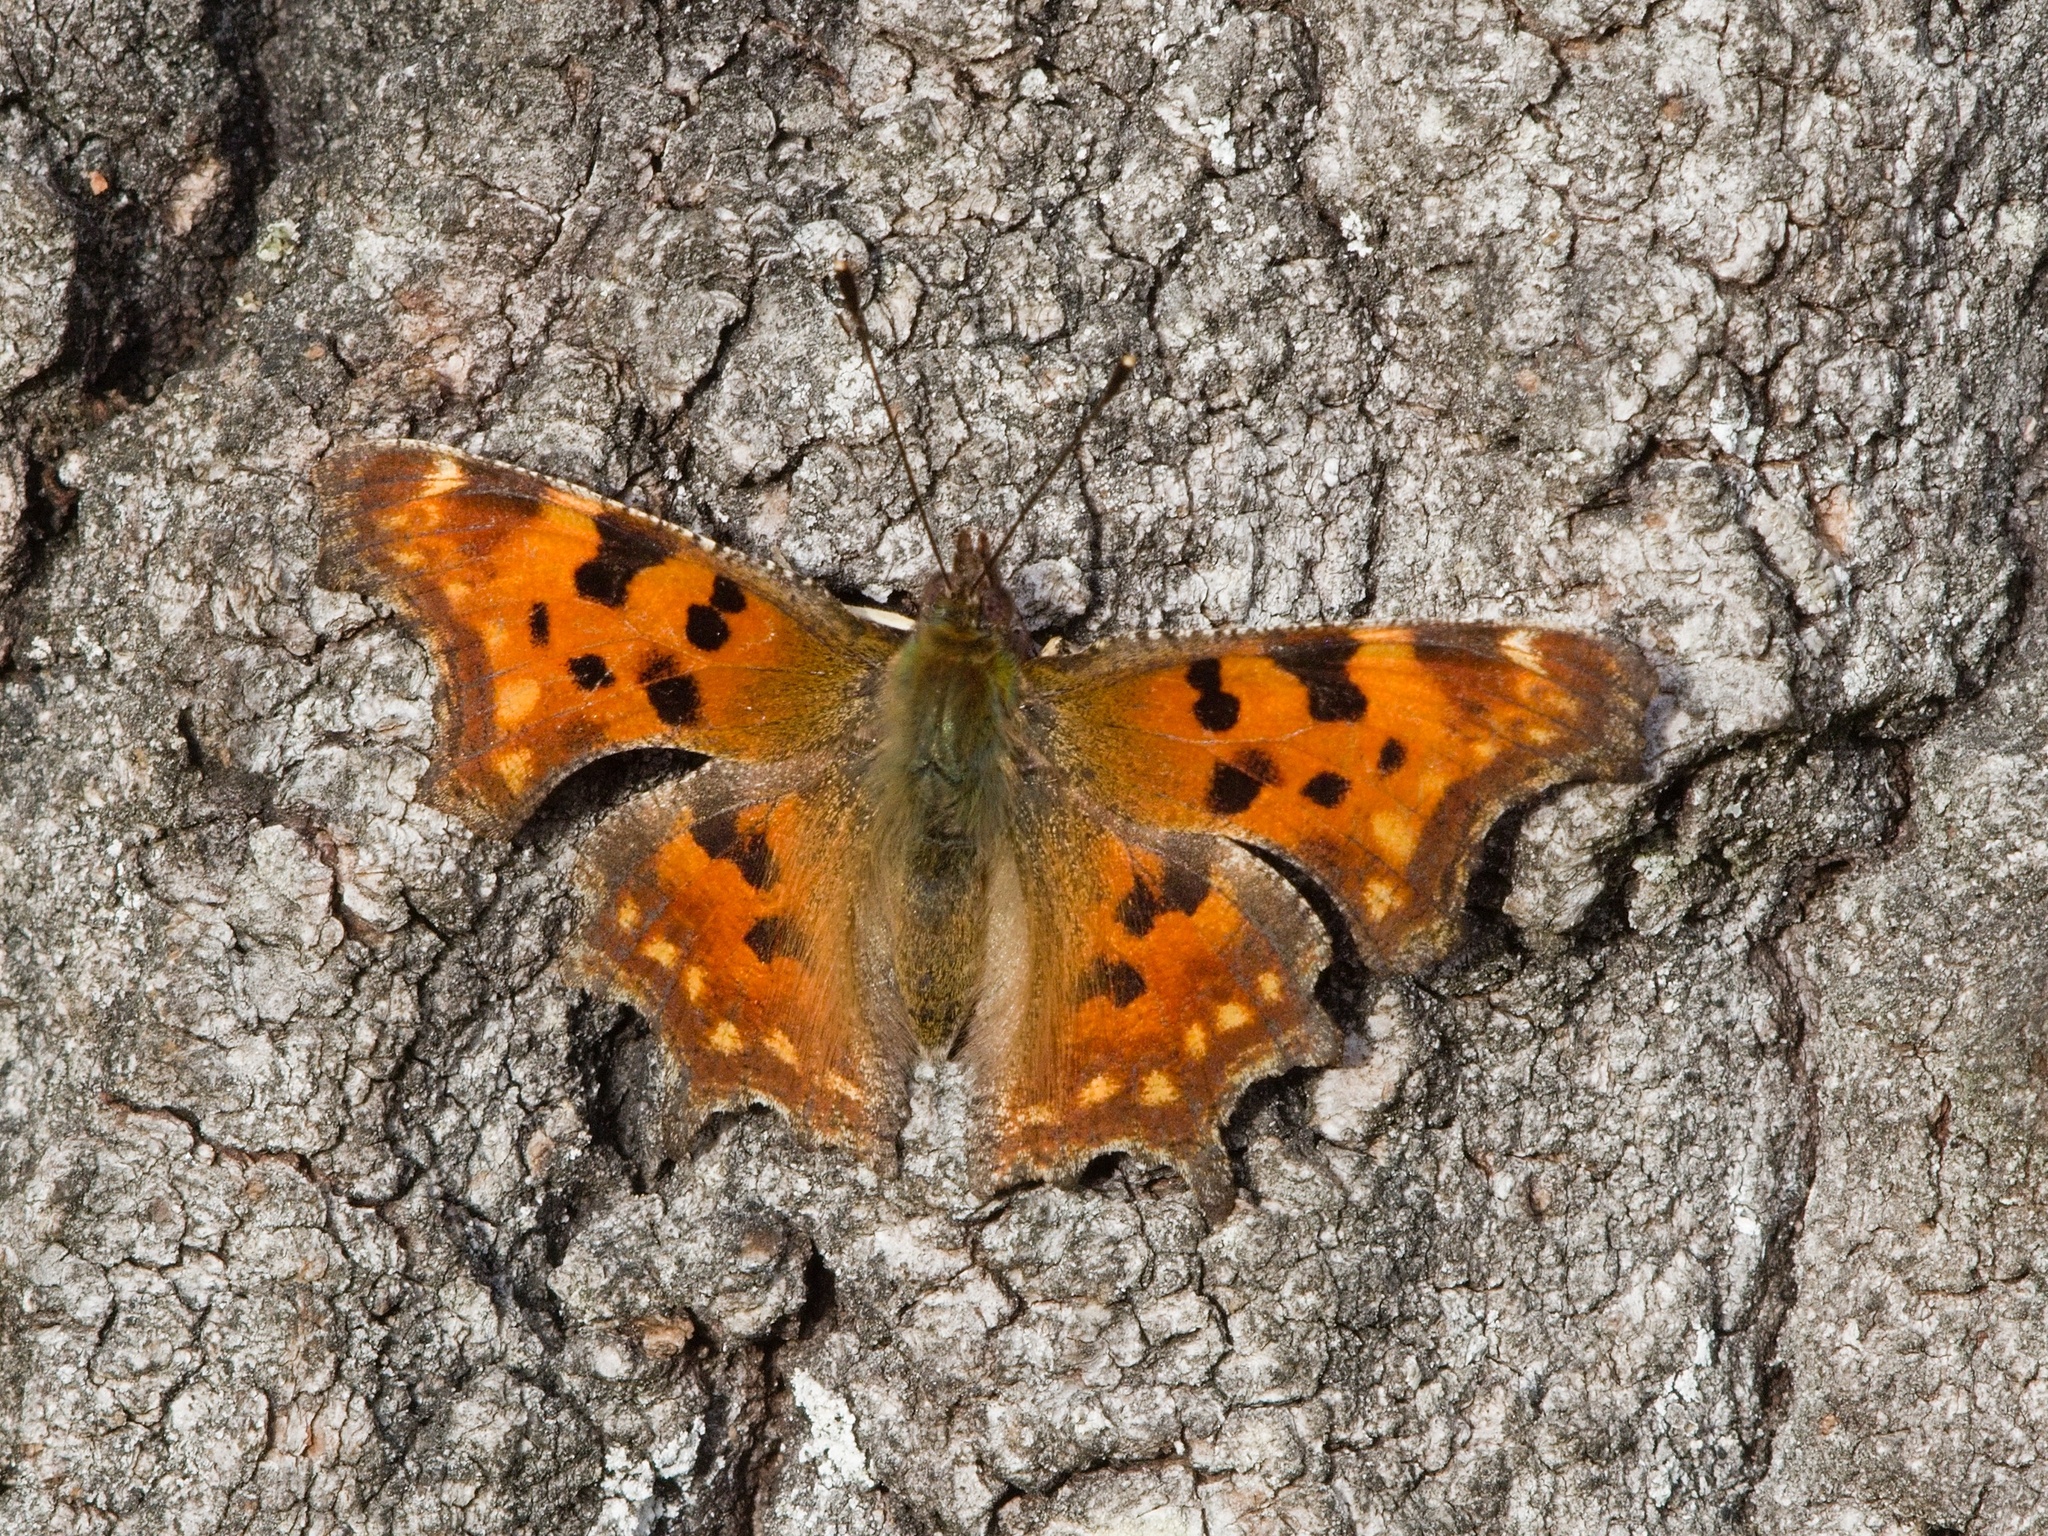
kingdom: Animalia
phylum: Arthropoda
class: Insecta
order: Lepidoptera
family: Nymphalidae
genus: Polygonia
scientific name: Polygonia c-album
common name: Comma
